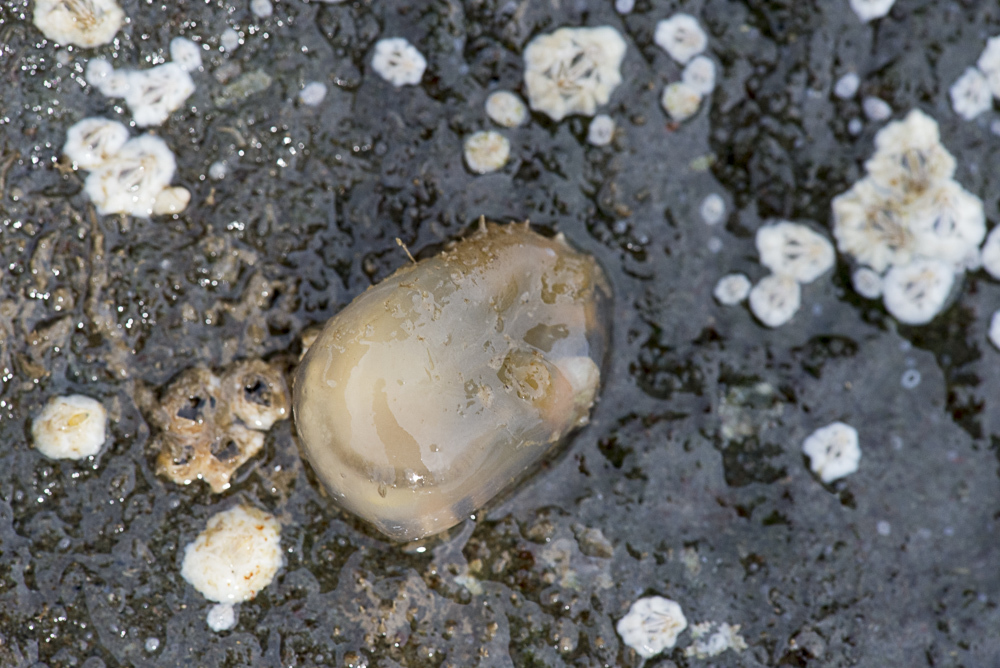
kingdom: Animalia
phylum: Chordata
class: Ascidiacea
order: Phlebobranchia
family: Corellidae
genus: Corella
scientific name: Corella eumyota
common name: Orange-tipped sea squirt
